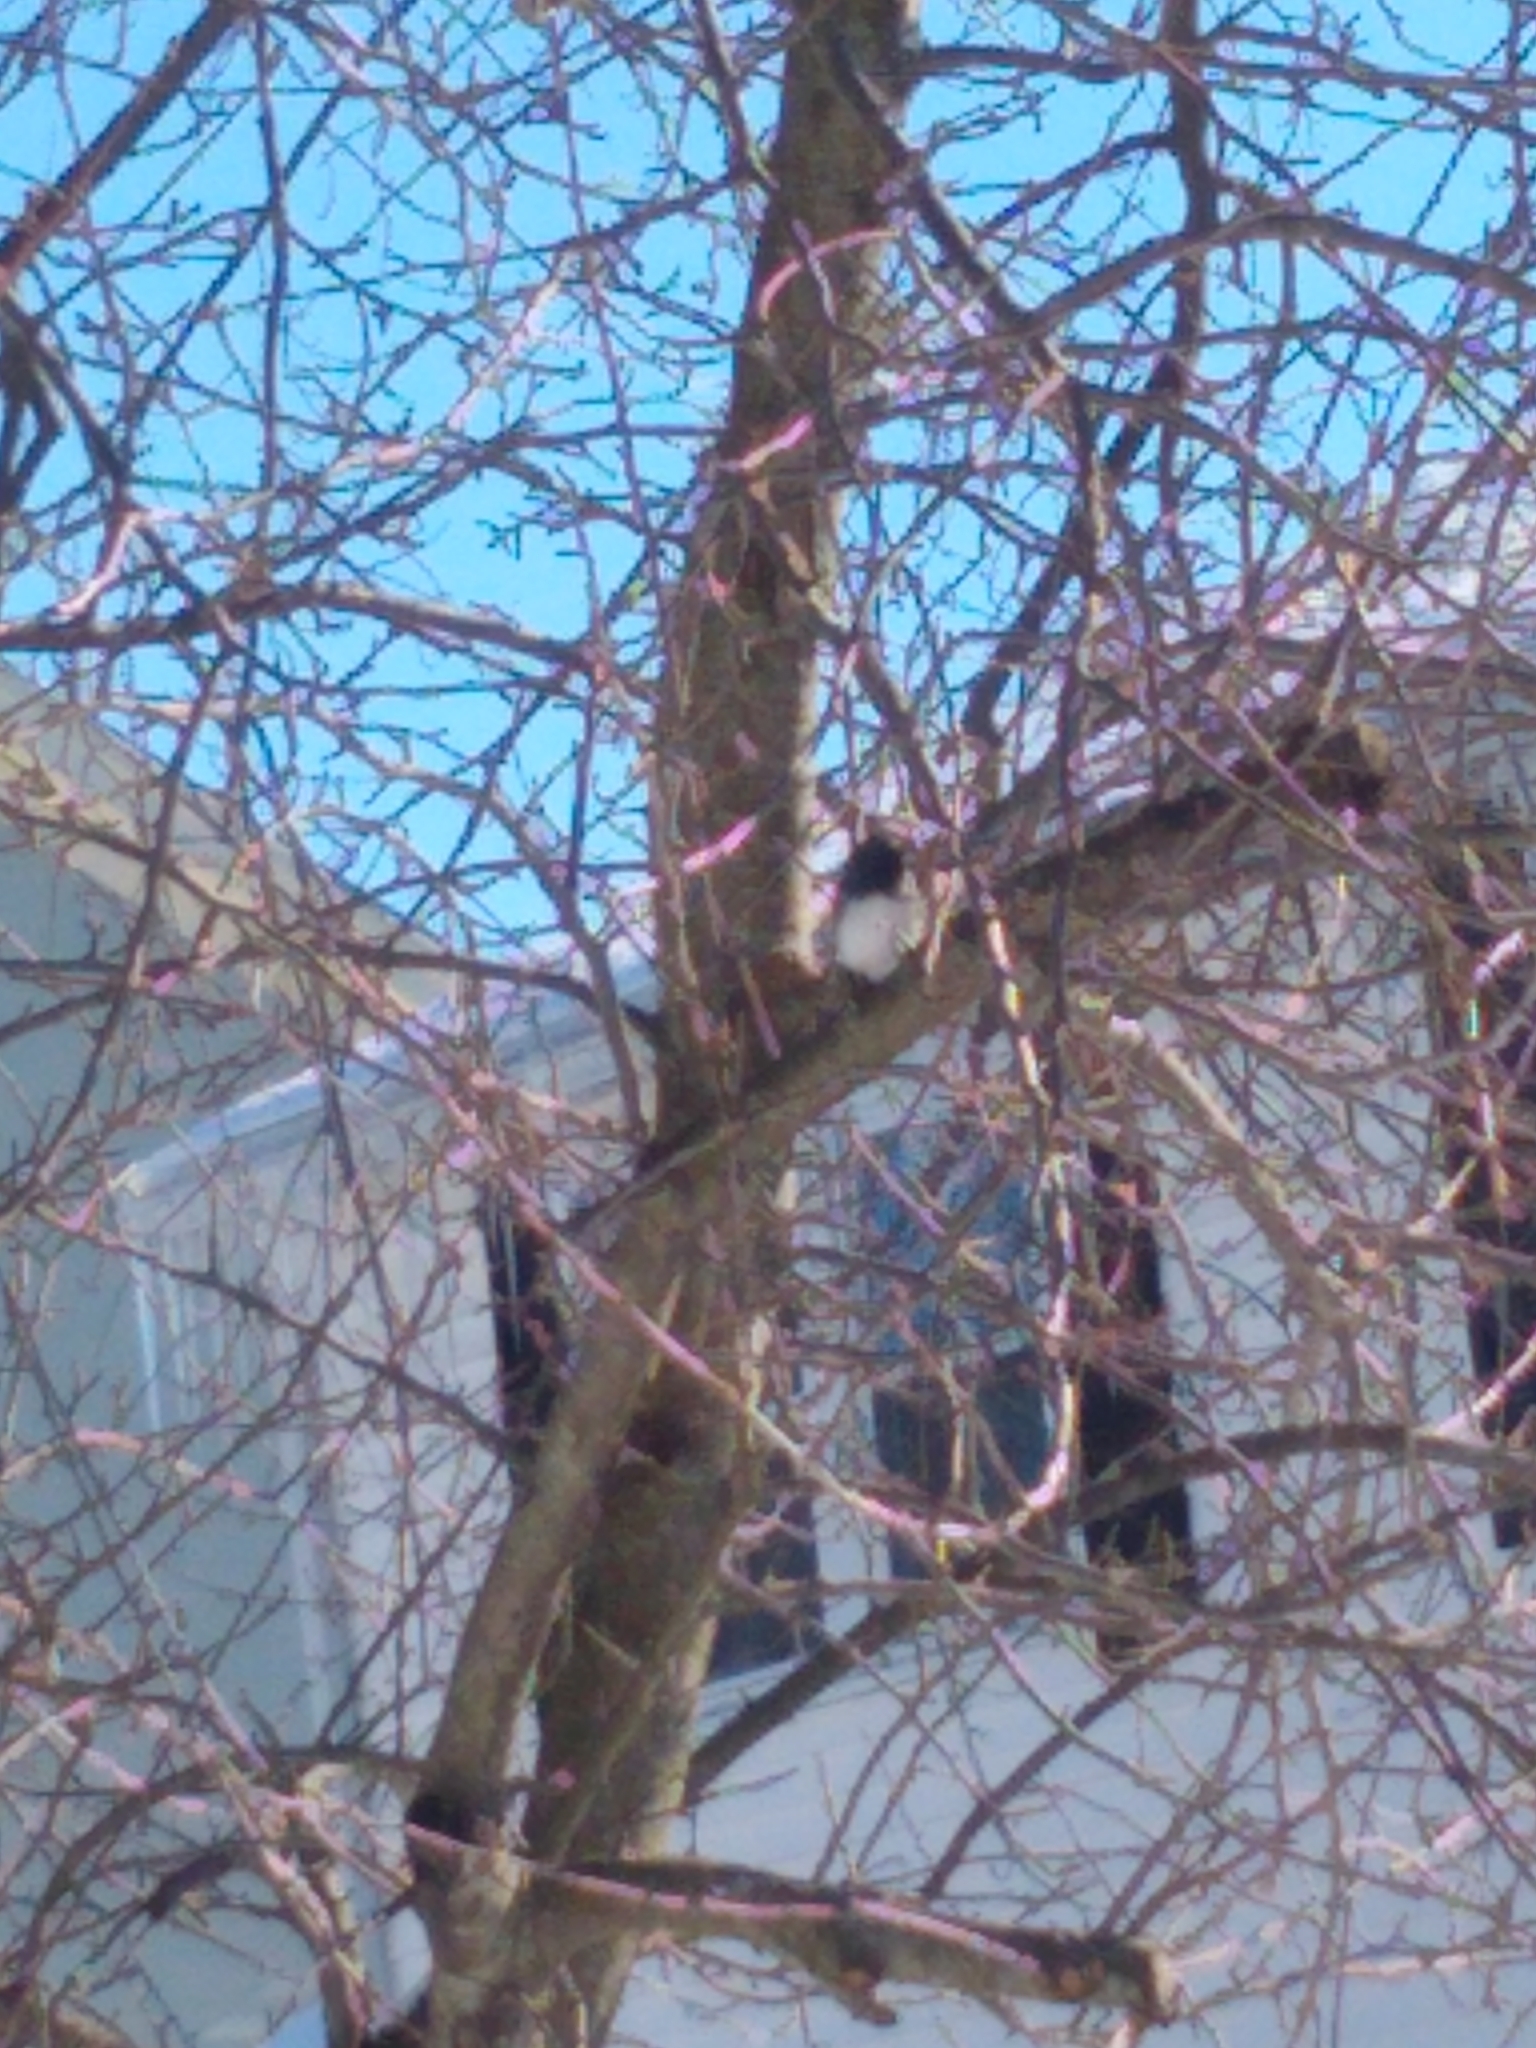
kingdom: Animalia
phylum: Chordata
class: Aves
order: Passeriformes
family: Passerellidae
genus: Junco
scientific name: Junco hyemalis
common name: Dark-eyed junco
